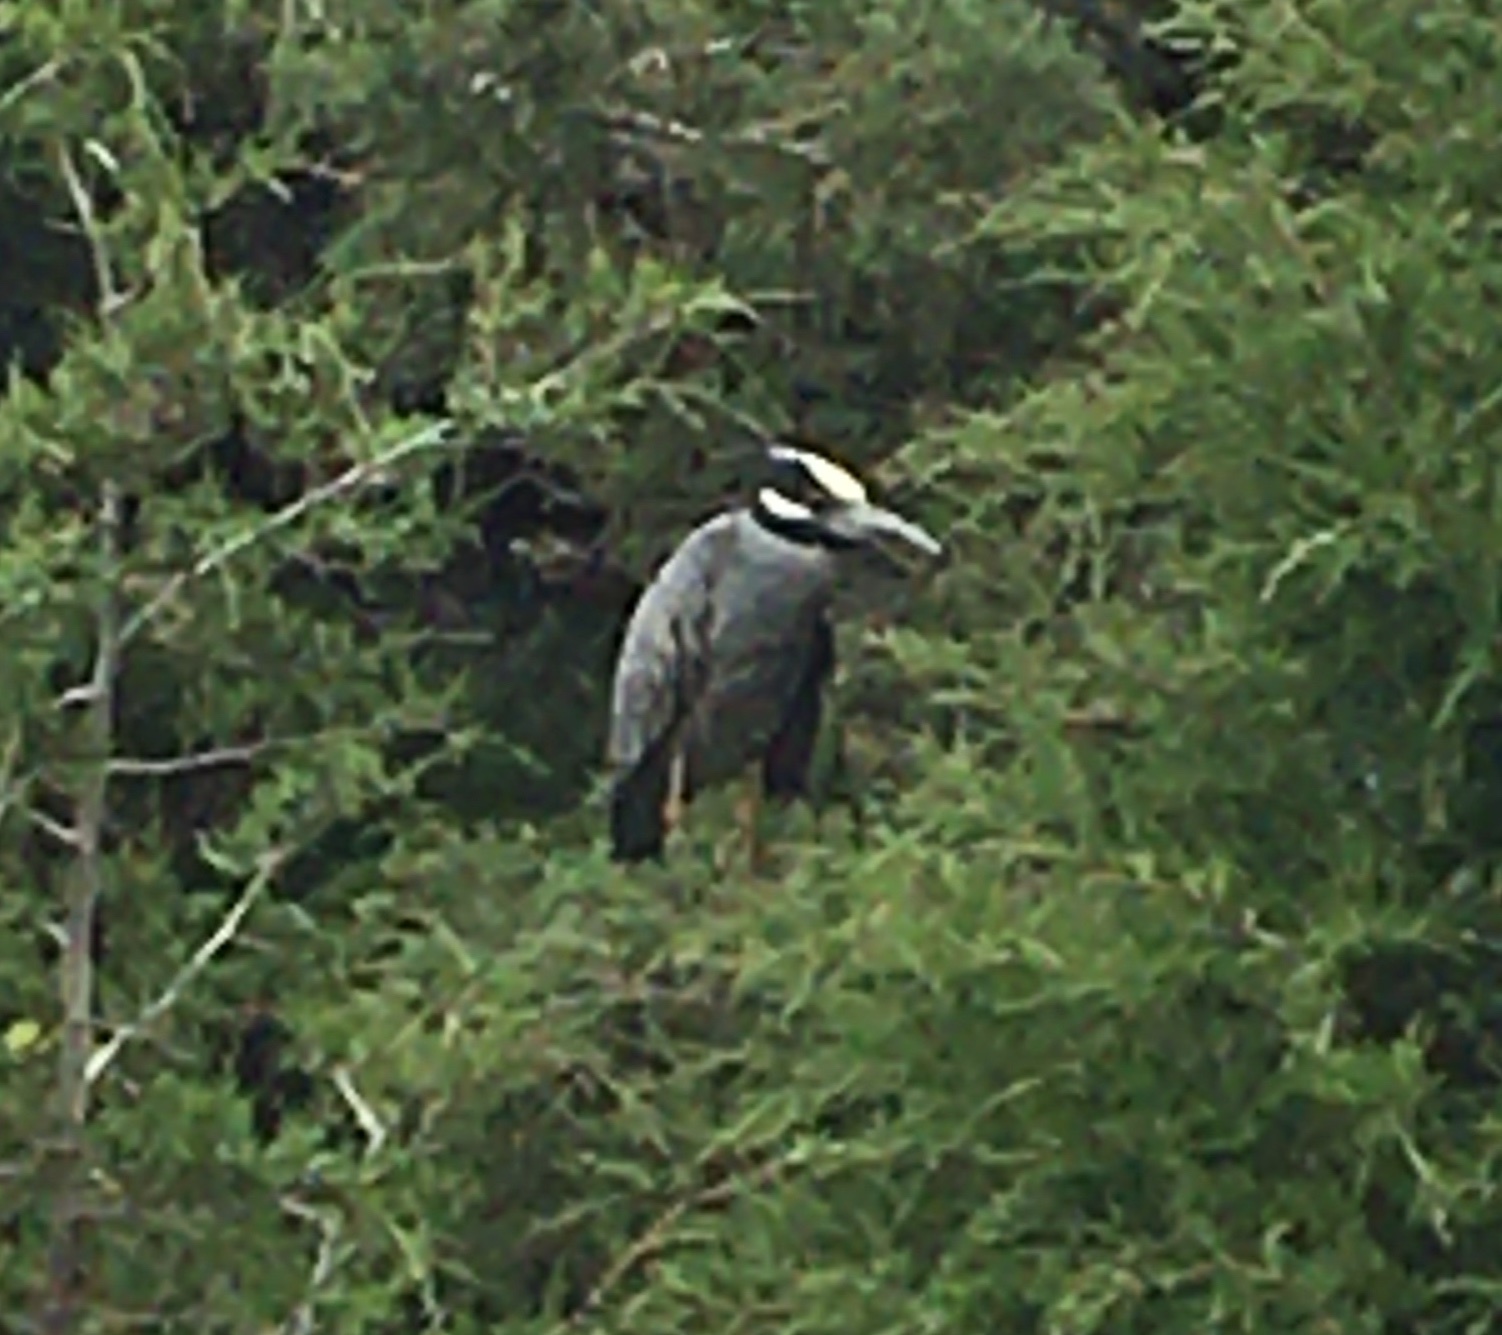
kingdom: Animalia
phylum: Chordata
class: Aves
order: Pelecaniformes
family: Ardeidae
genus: Nyctanassa
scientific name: Nyctanassa violacea
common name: Yellow-crowned night heron
